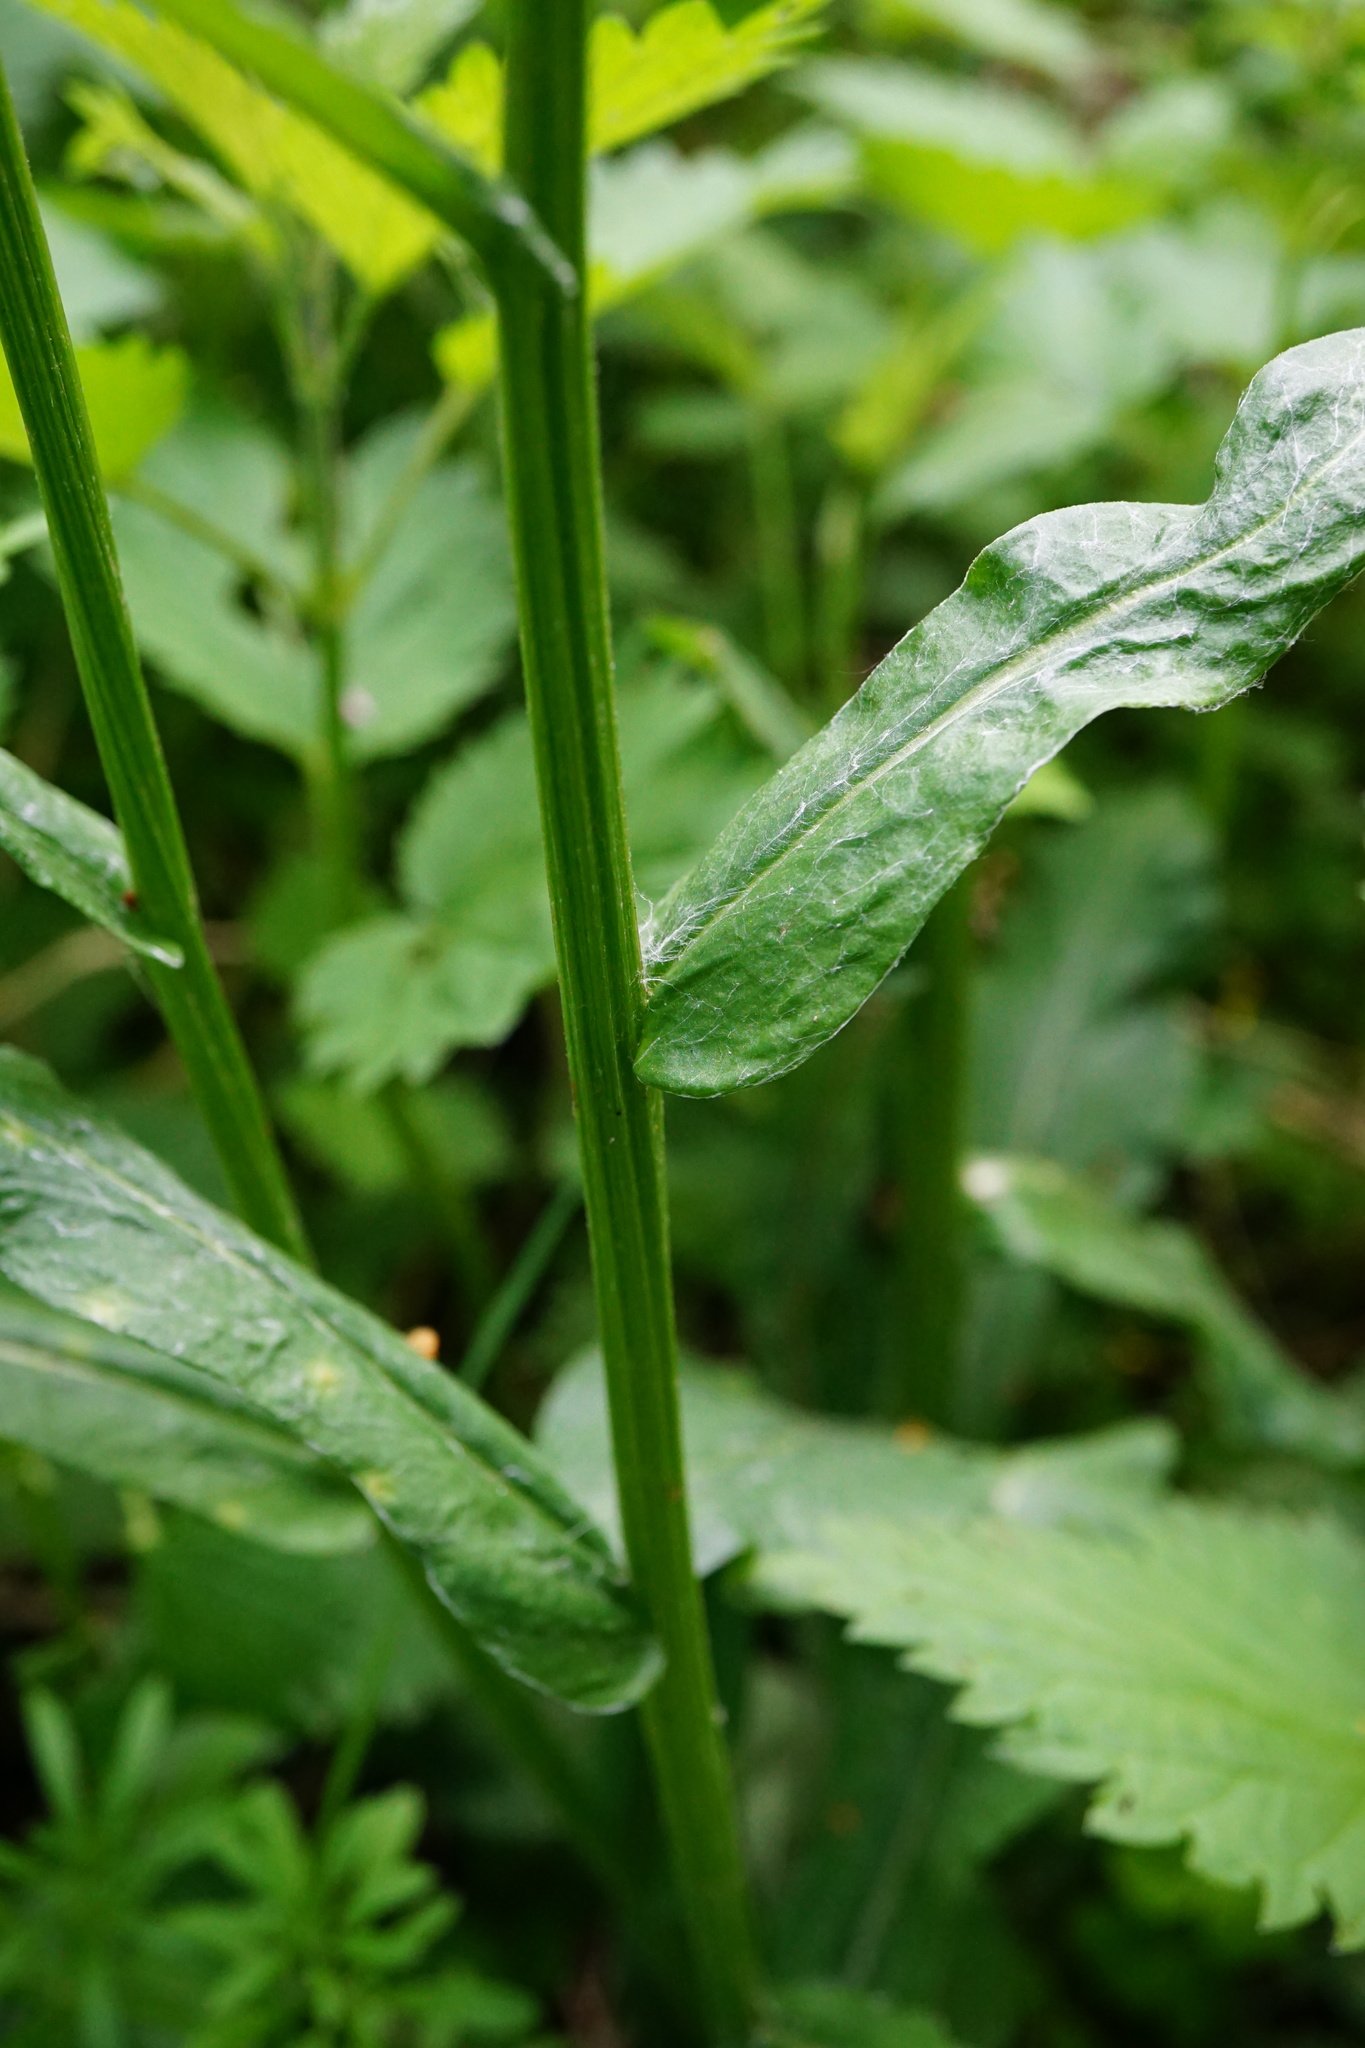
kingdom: Plantae
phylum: Tracheophyta
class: Magnoliopsida
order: Asterales
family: Asteraceae
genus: Tephroseris
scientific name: Tephroseris crispa
